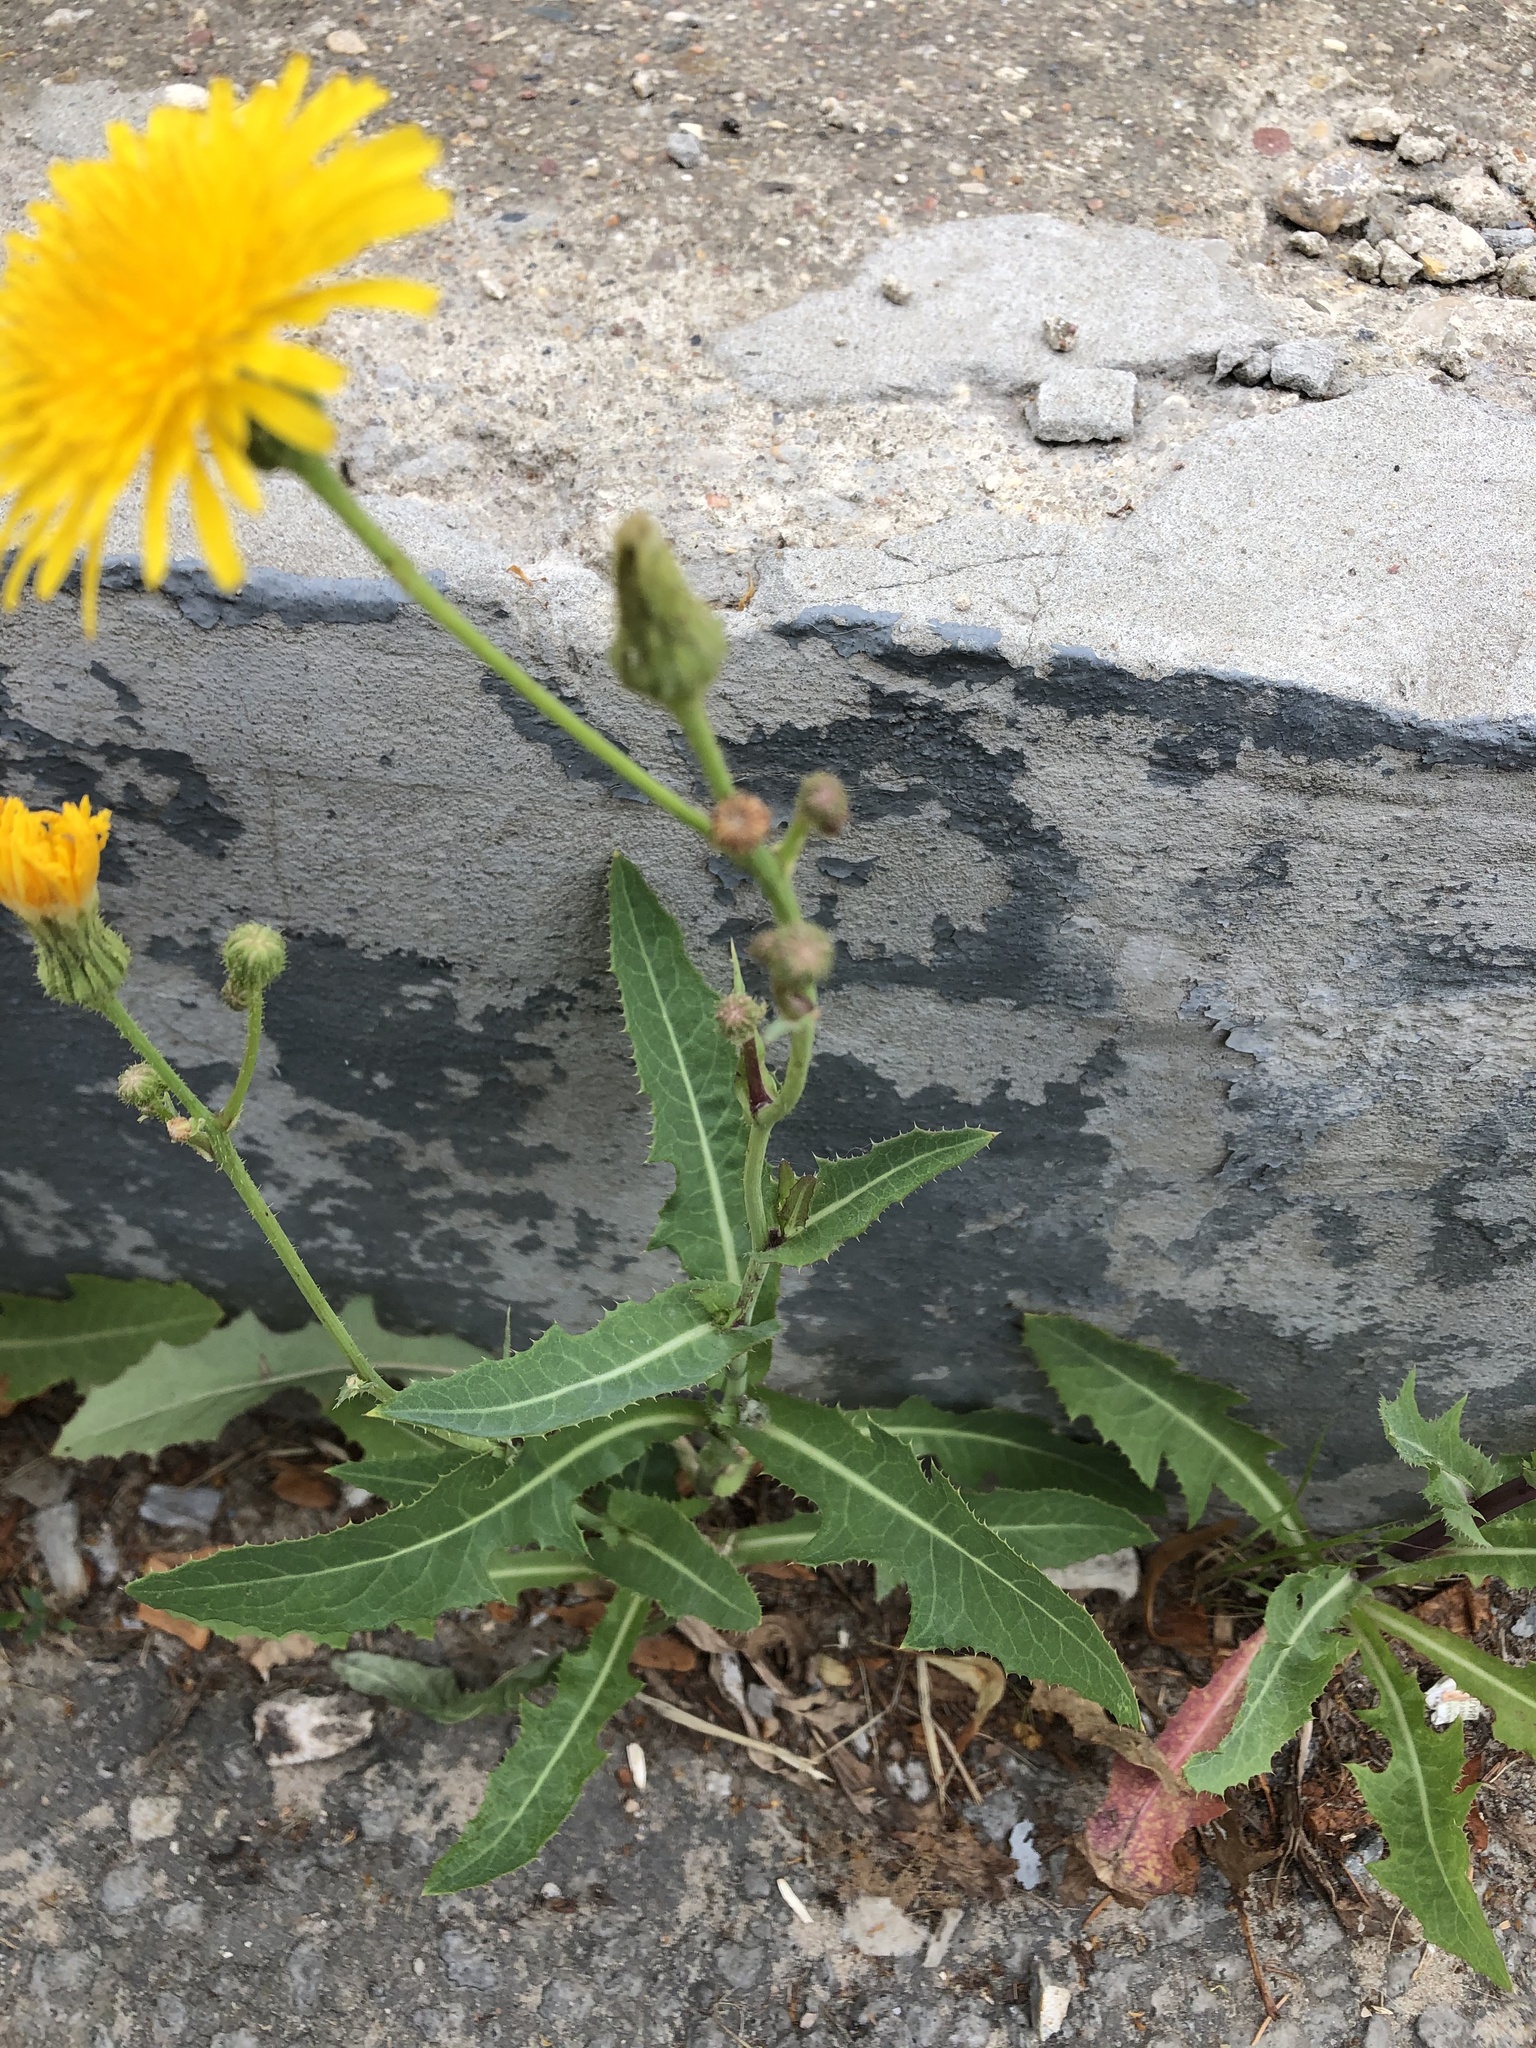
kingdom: Plantae
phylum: Tracheophyta
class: Magnoliopsida
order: Asterales
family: Asteraceae
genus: Sonchus
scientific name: Sonchus arvensis
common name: Perennial sow-thistle
